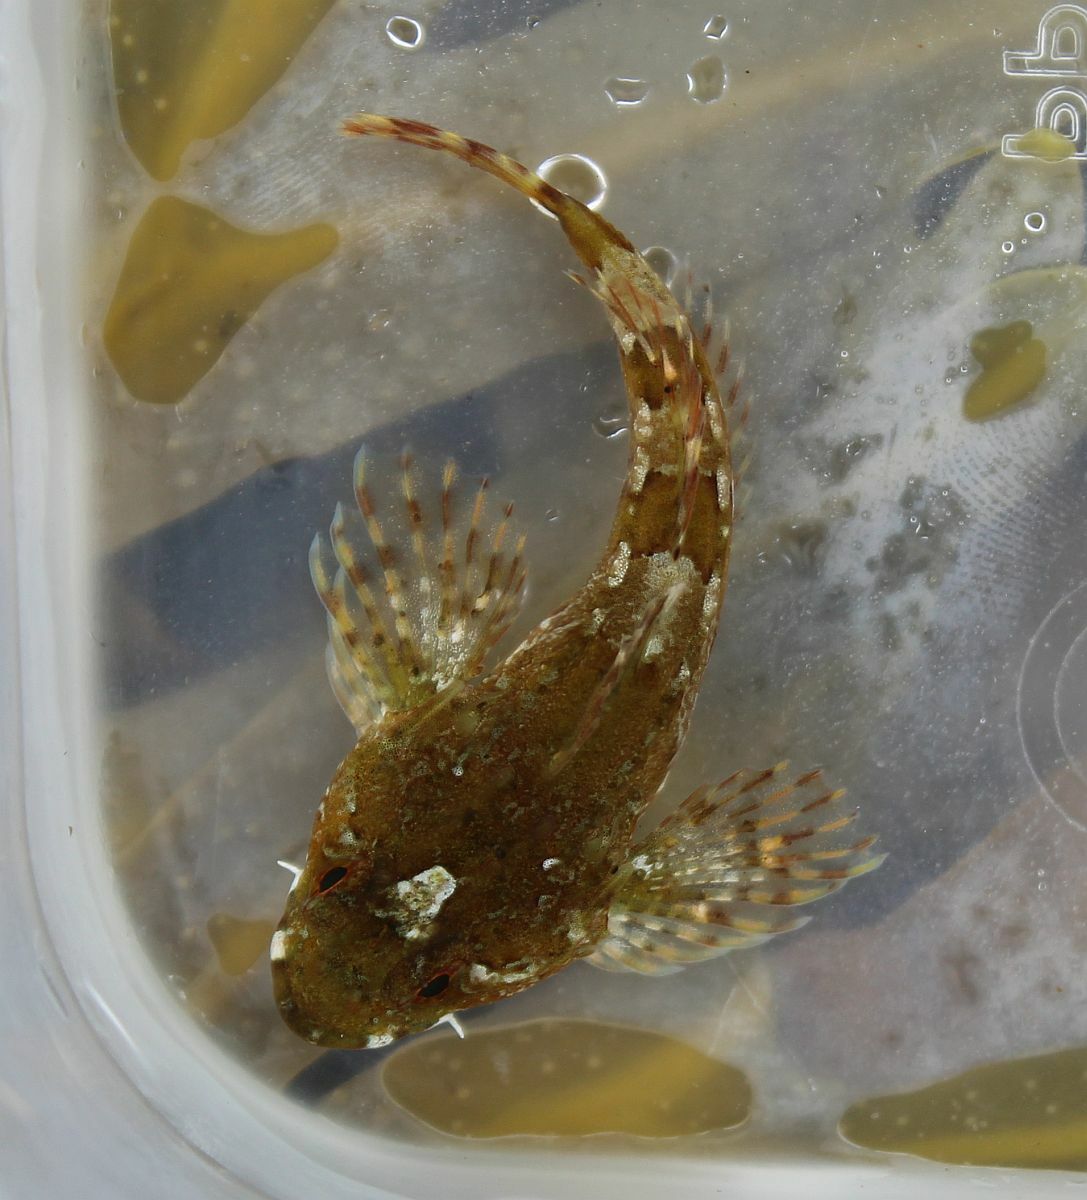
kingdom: Animalia
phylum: Chordata
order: Scorpaeniformes
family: Cottidae
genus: Taurulus
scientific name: Taurulus bubalis
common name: Sea scorpion
